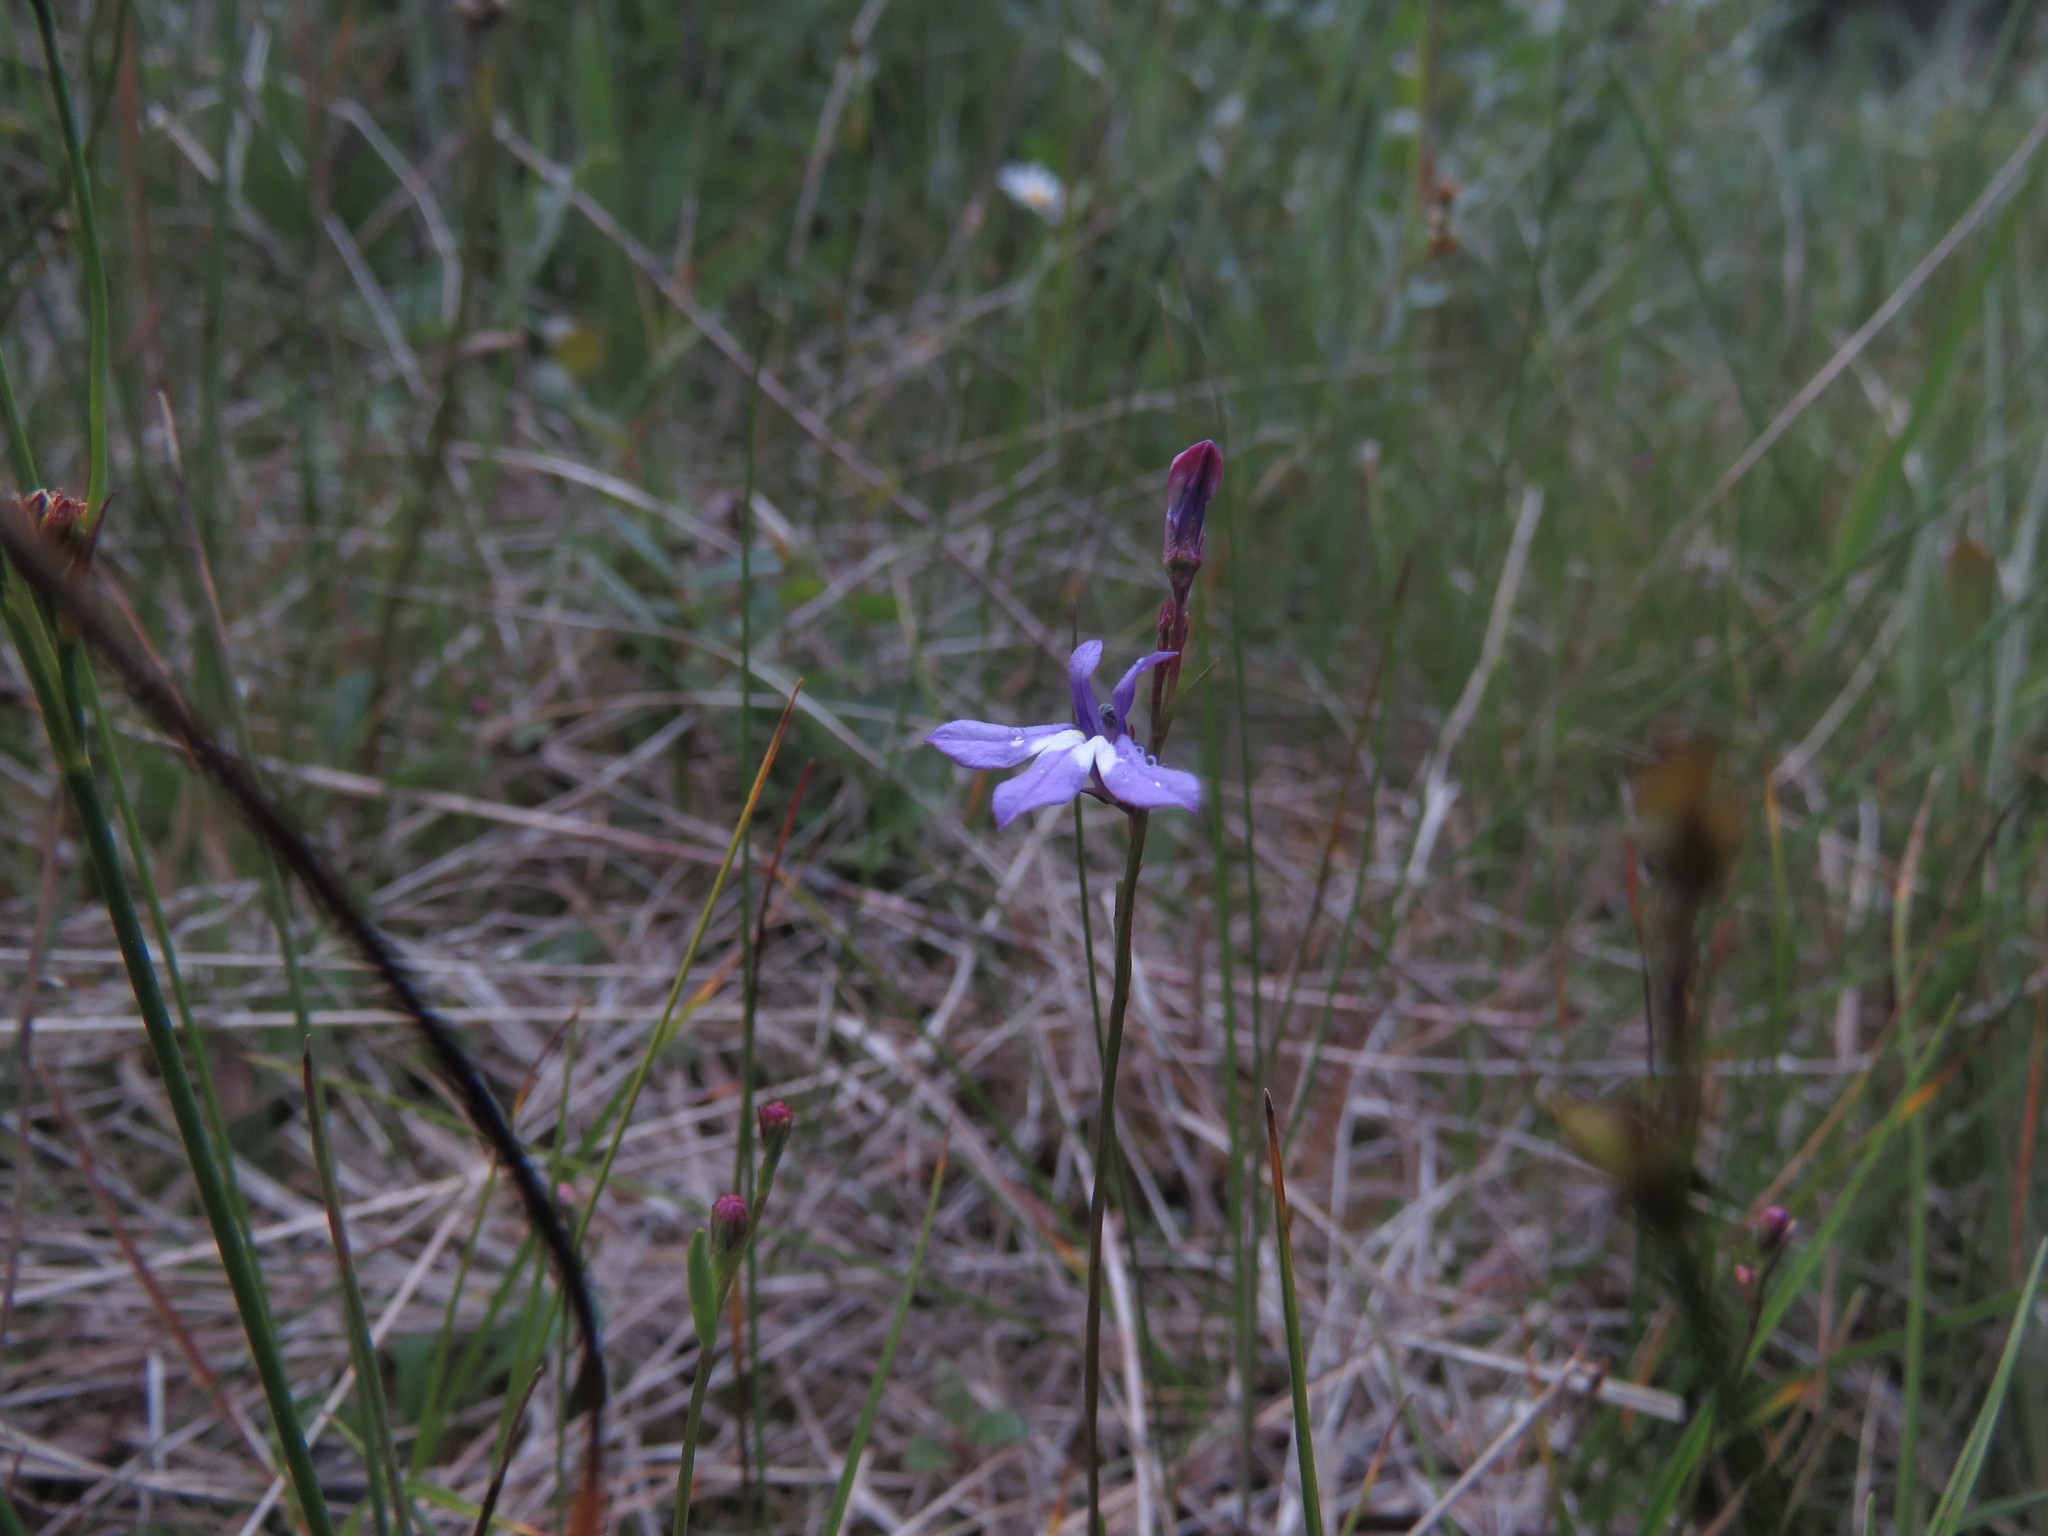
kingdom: Plantae
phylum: Tracheophyta
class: Magnoliopsida
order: Asterales
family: Campanulaceae
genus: Lobelia
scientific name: Lobelia kalmii
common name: Kalm's lobelia
